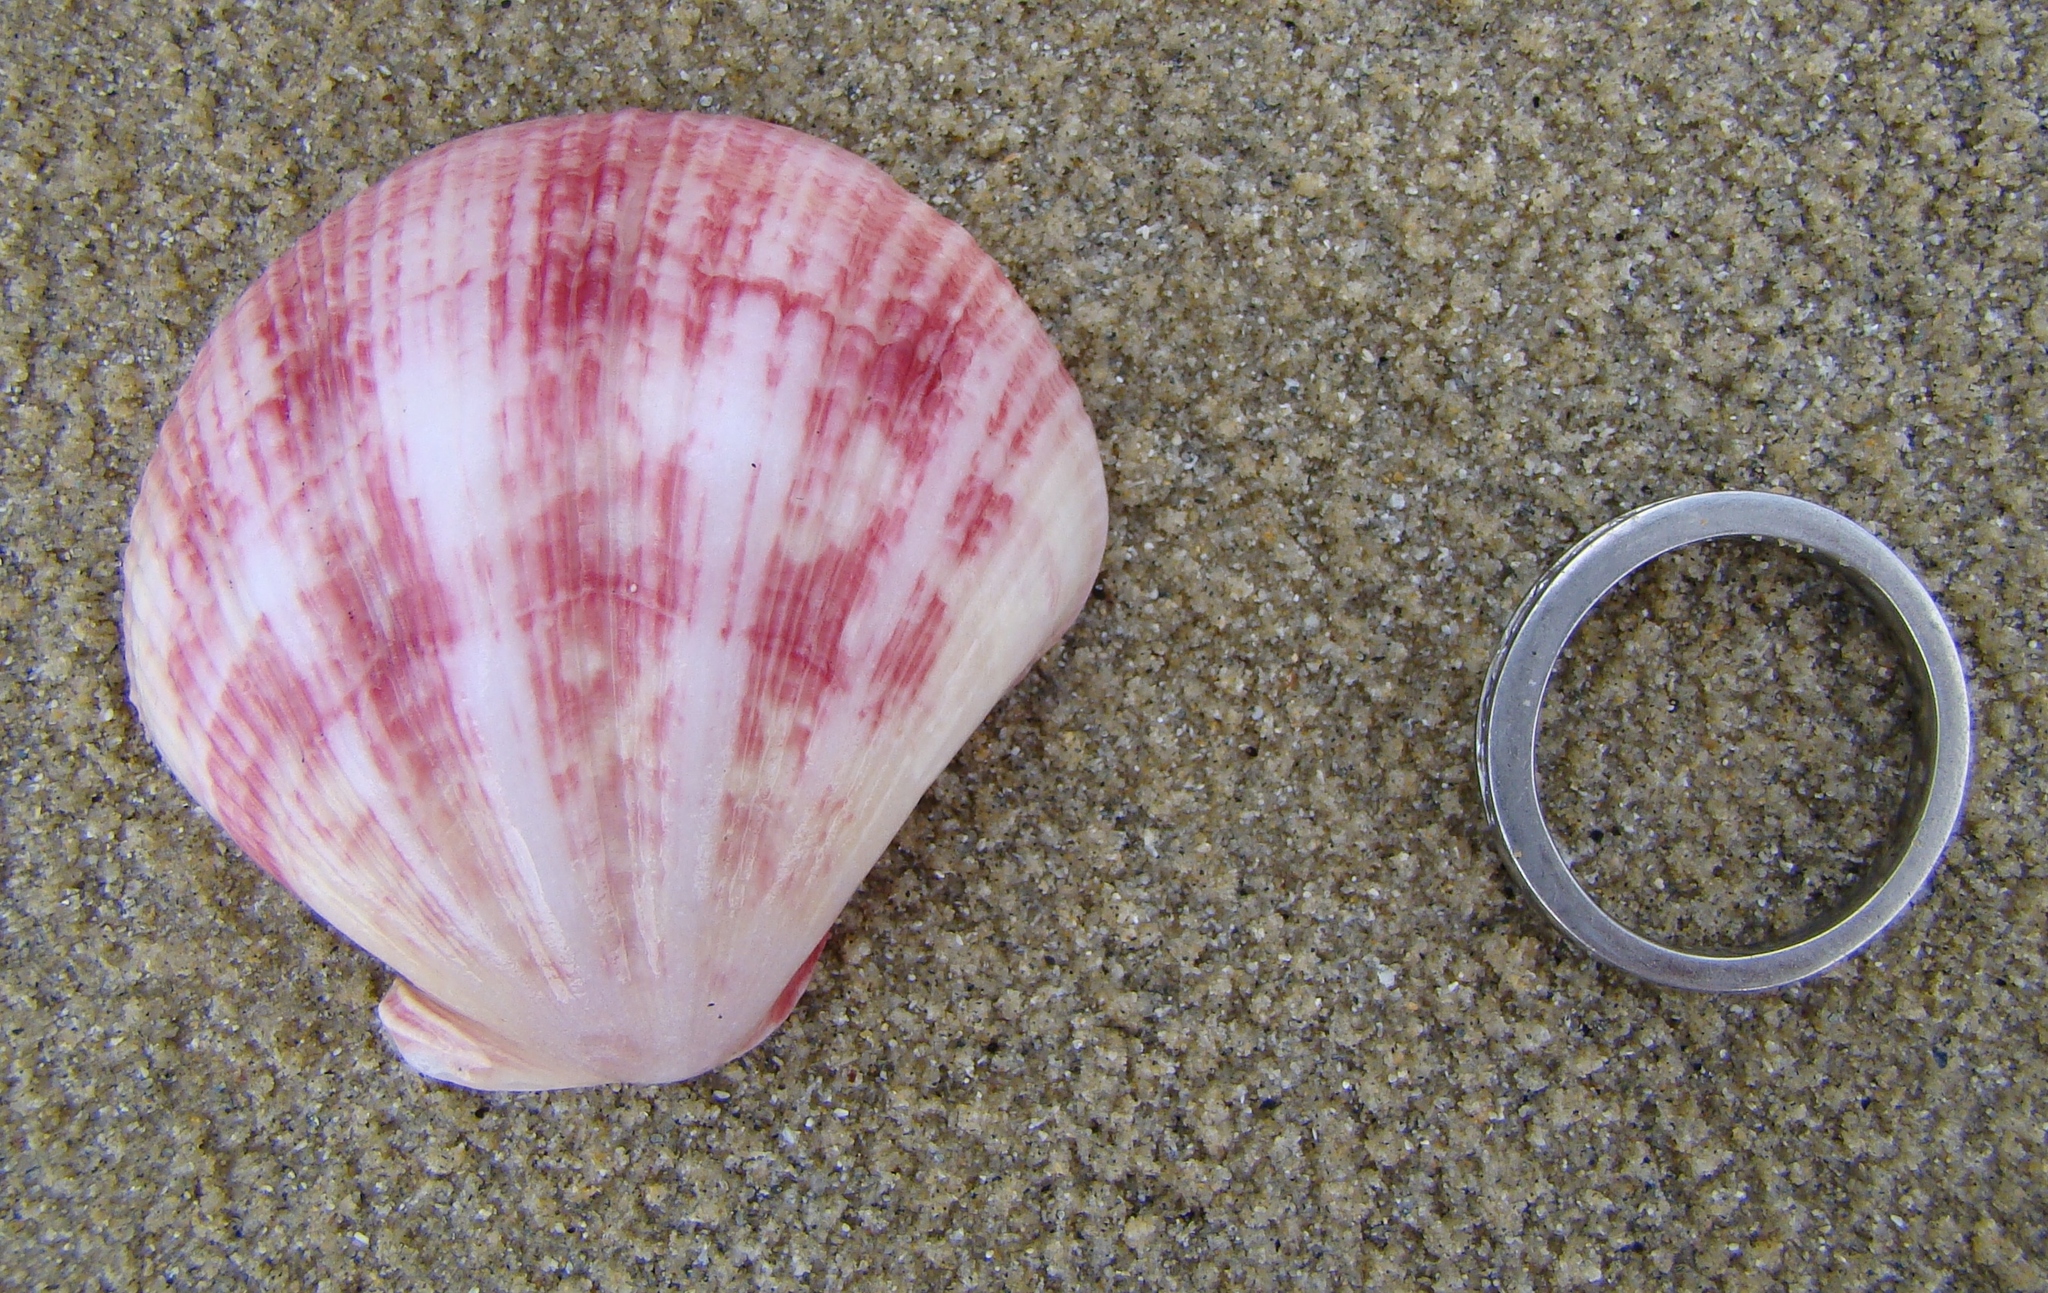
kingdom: Animalia
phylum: Mollusca
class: Bivalvia
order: Pectinida
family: Pectinidae
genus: Mesopeplum
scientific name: Mesopeplum convexum
